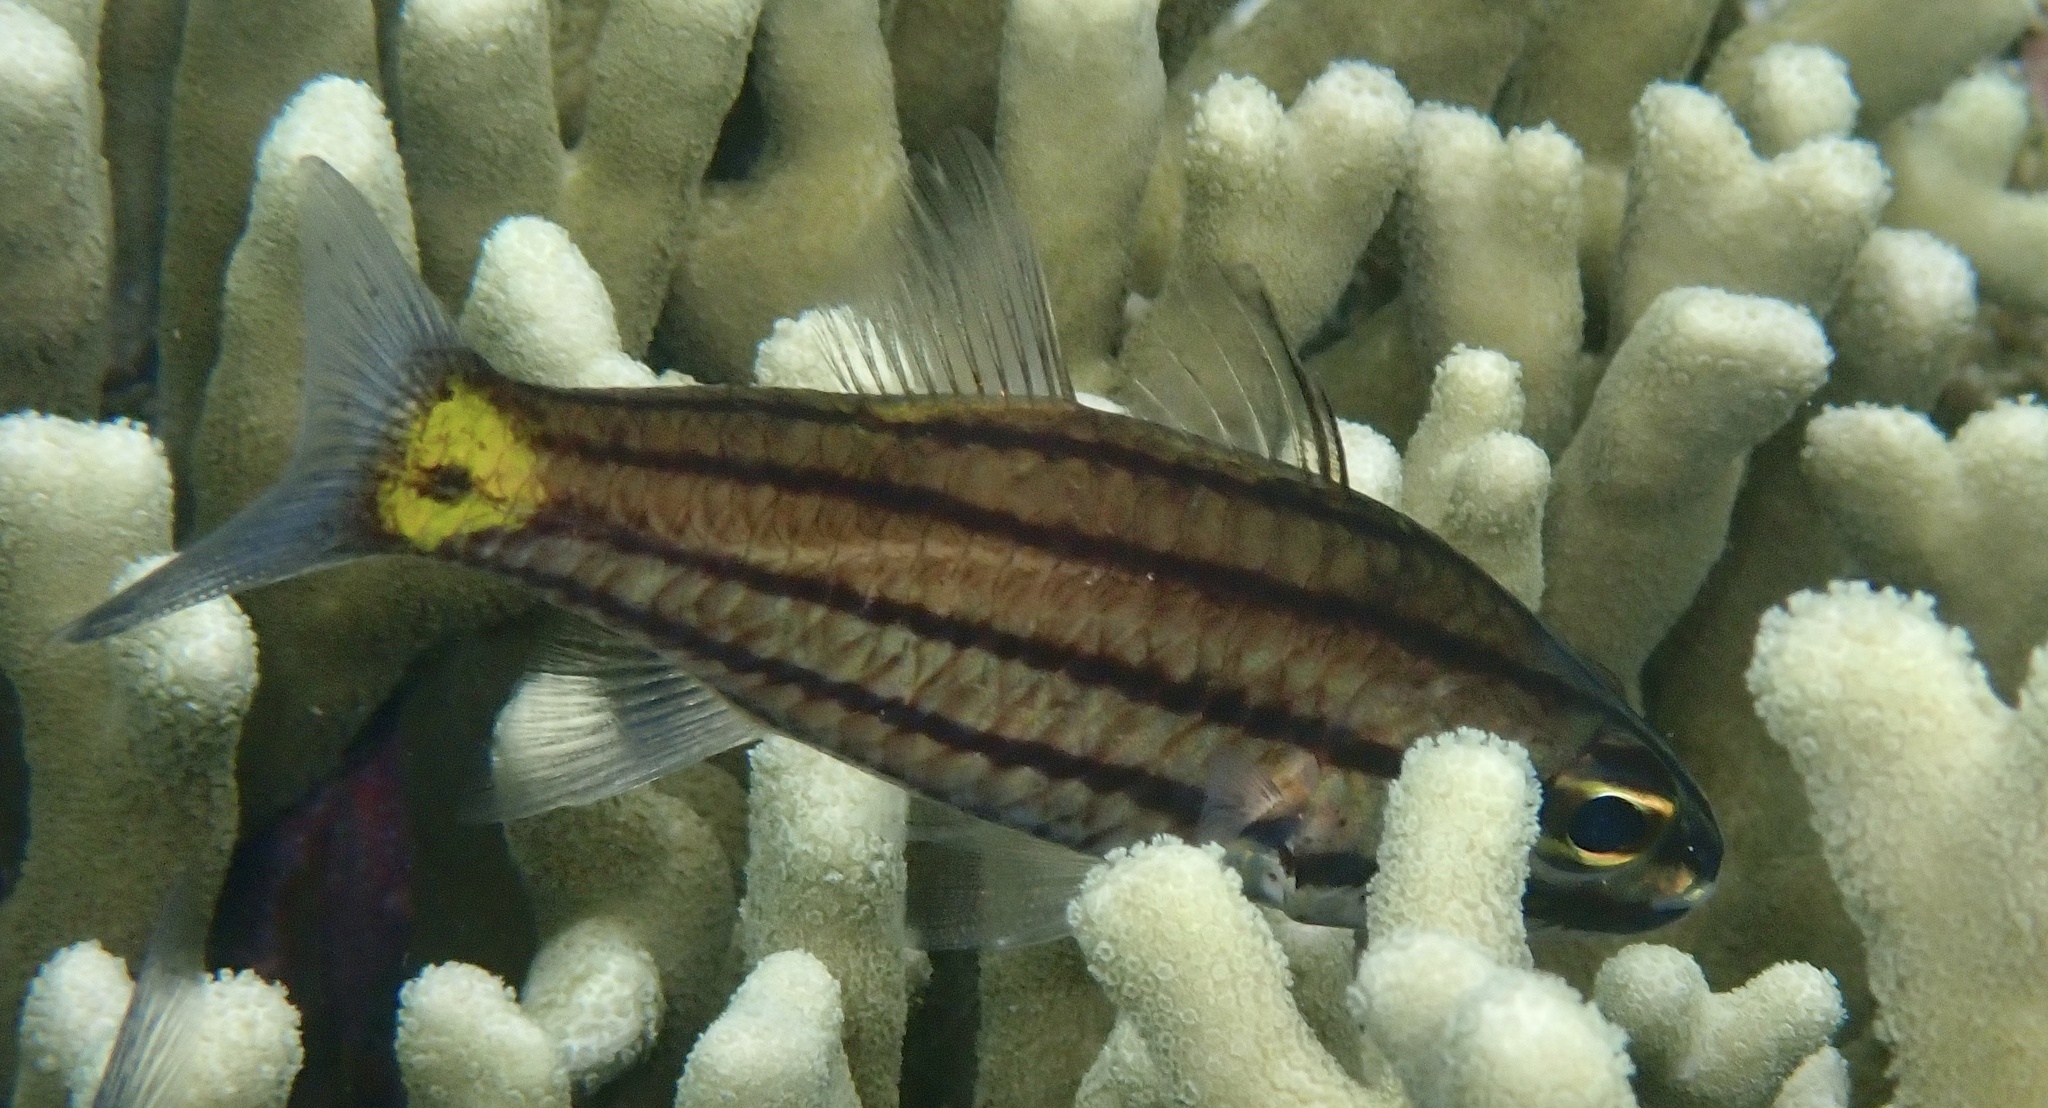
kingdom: Animalia
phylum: Chordata
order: Perciformes
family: Apogonidae
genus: Cheilodipterus
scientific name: Cheilodipterus quinquelineatus
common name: Five-lined cardinalfish
